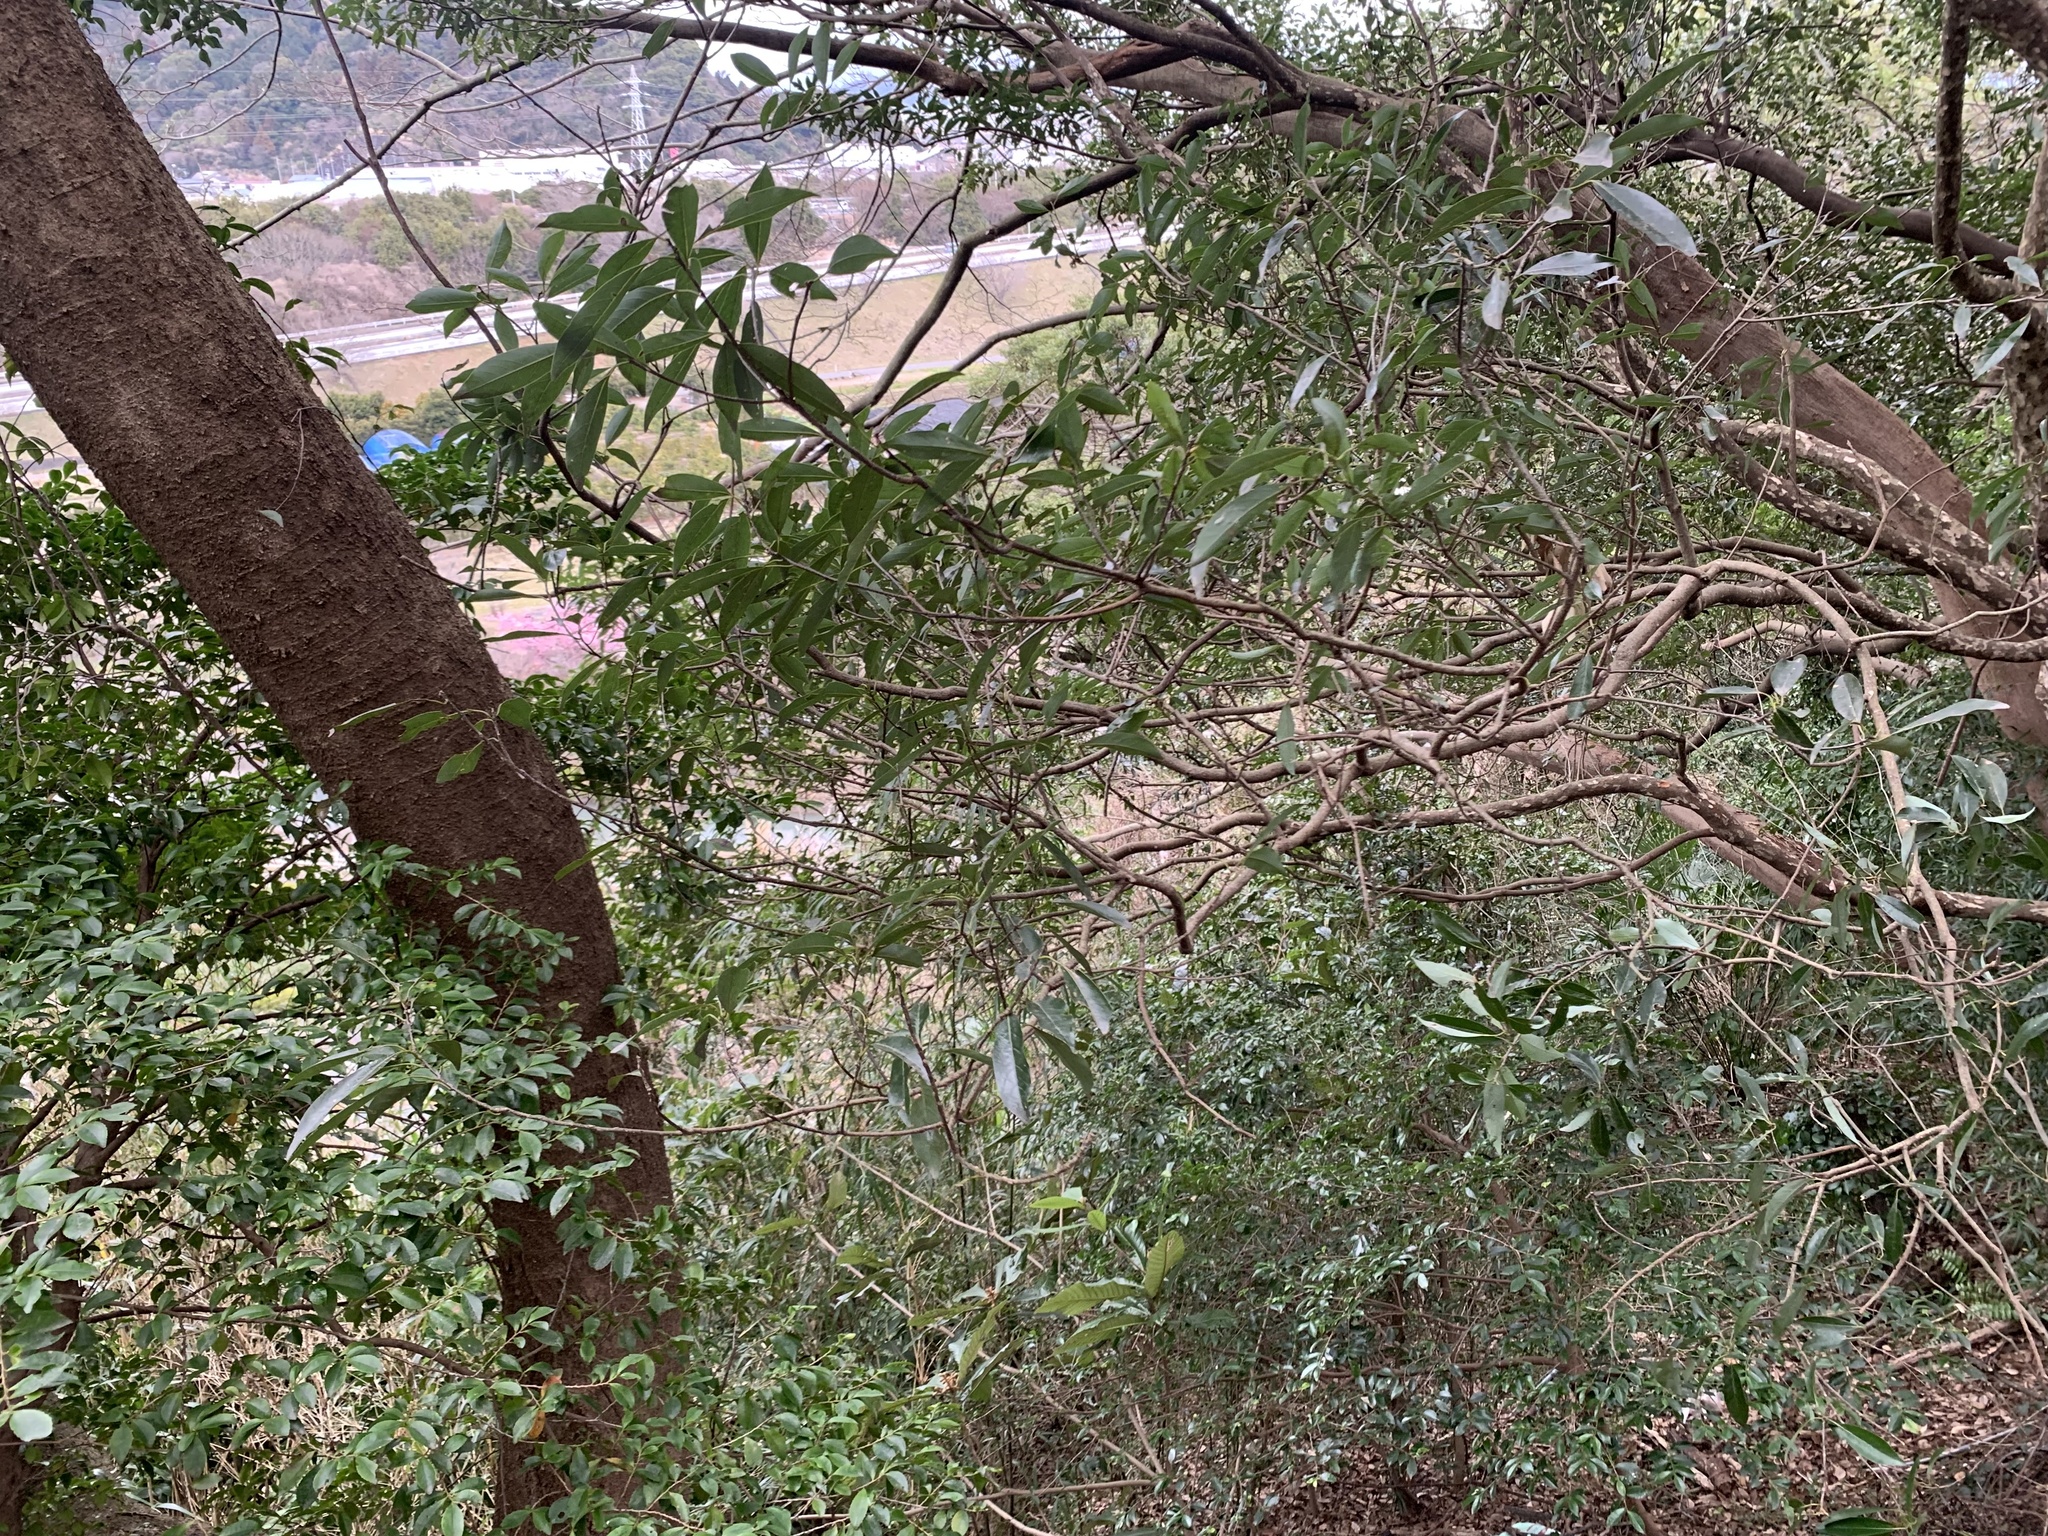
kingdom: Plantae
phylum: Tracheophyta
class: Magnoliopsida
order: Laurales
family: Lauraceae
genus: Litsea
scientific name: Litsea coreana
